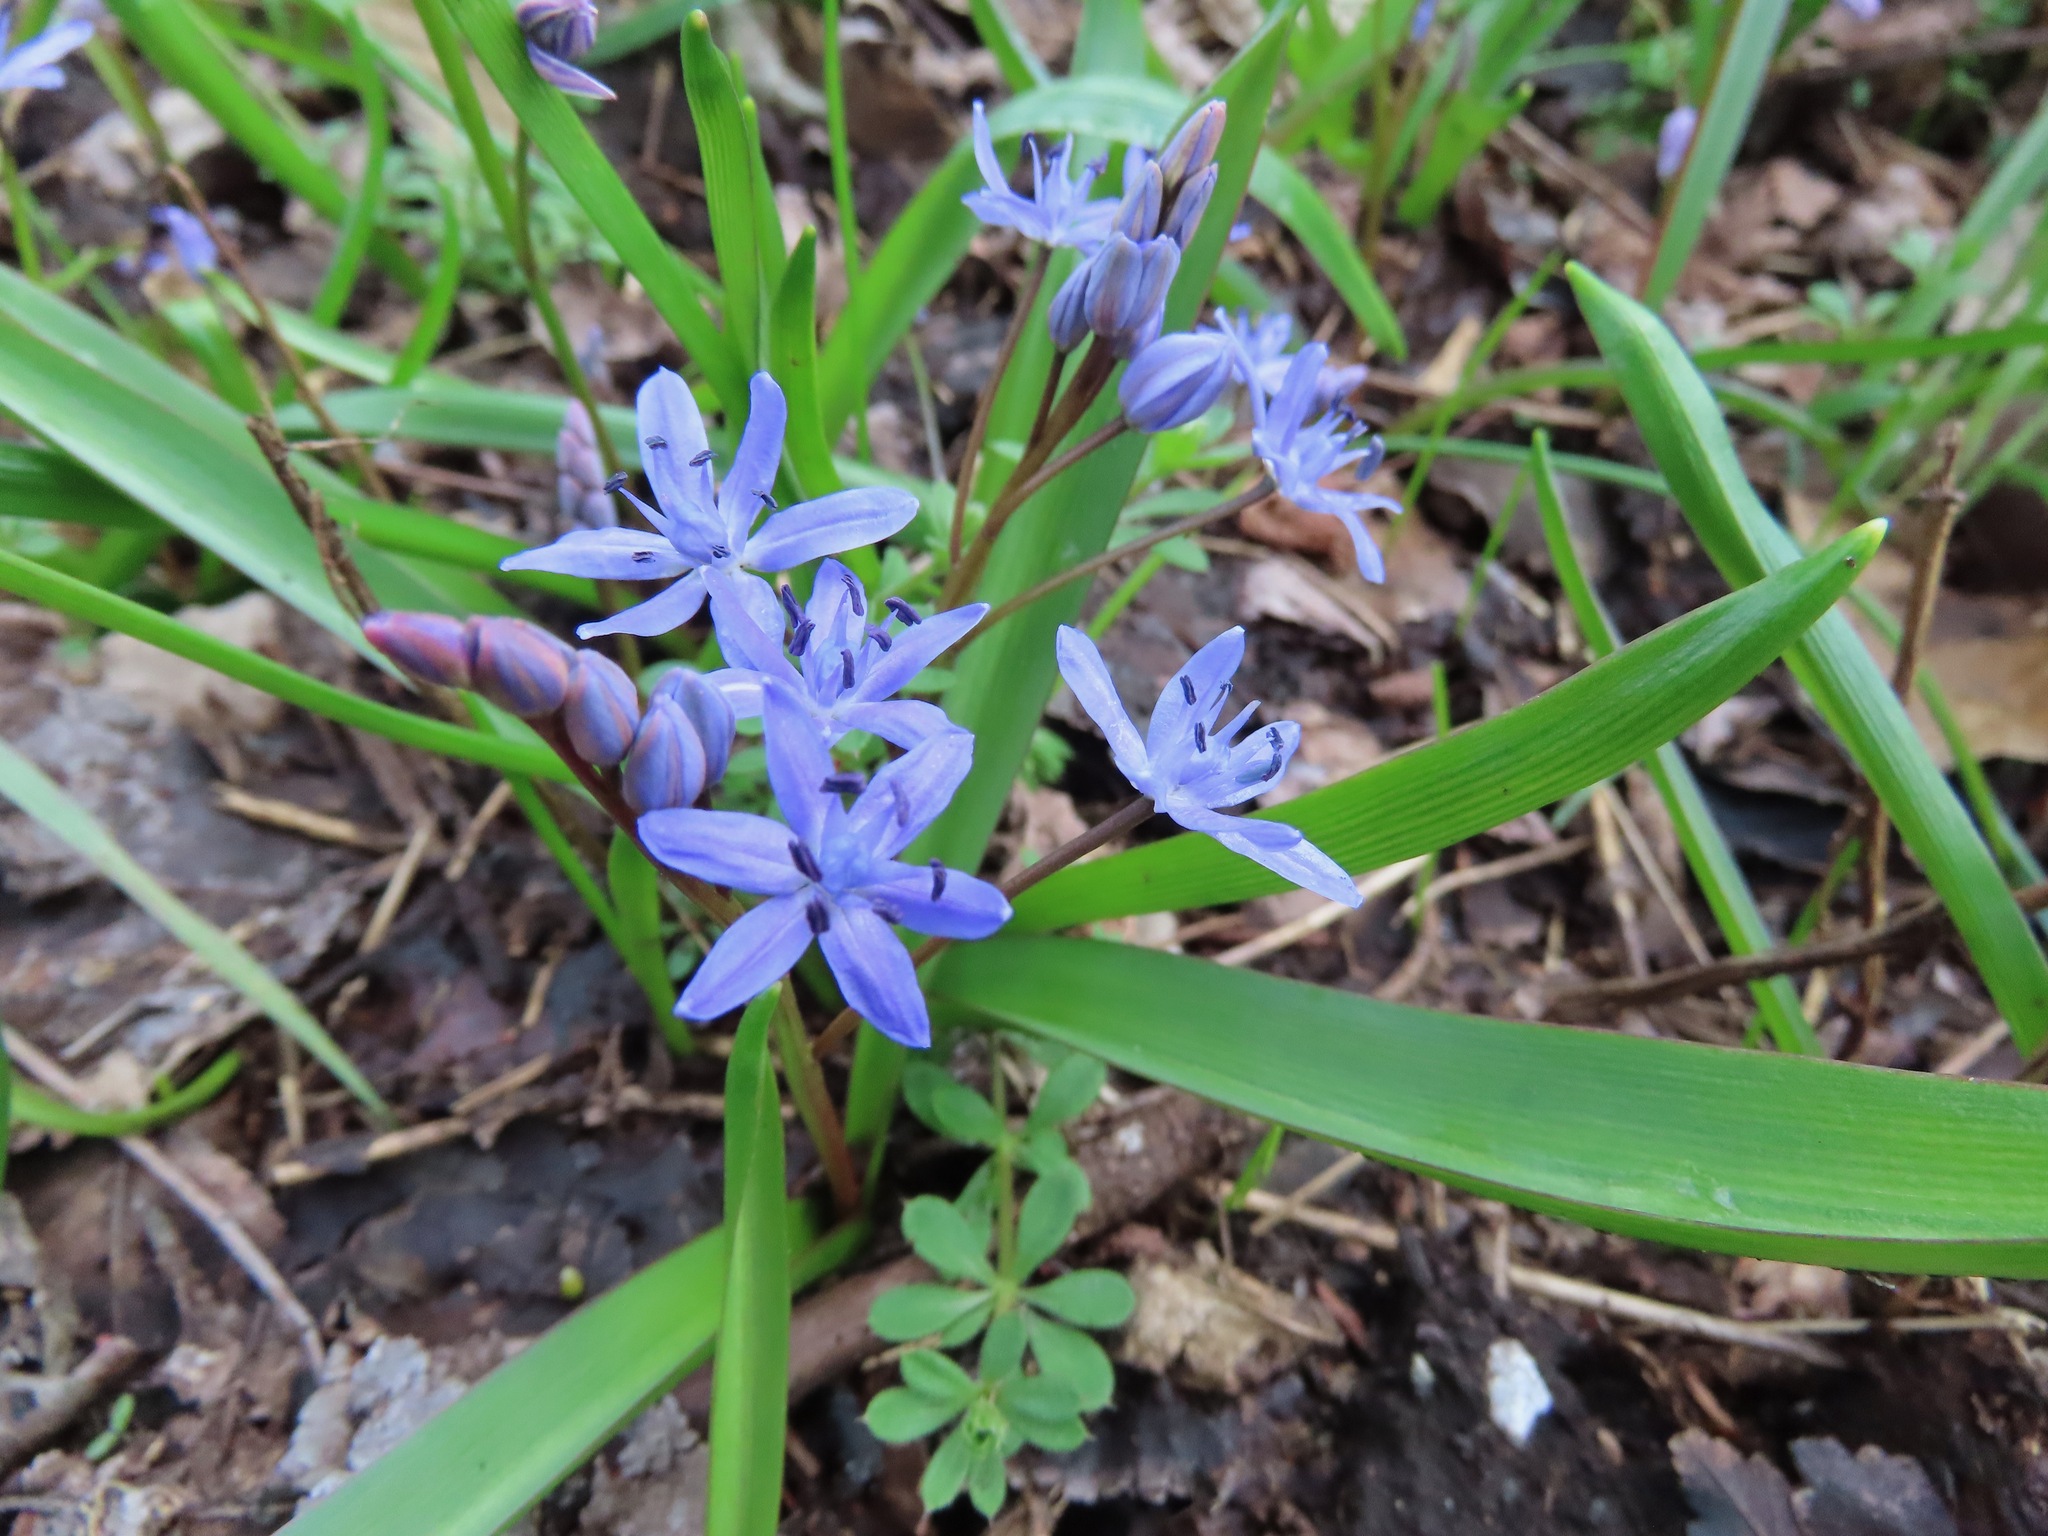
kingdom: Plantae
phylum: Tracheophyta
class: Liliopsida
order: Asparagales
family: Asparagaceae
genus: Scilla
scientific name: Scilla bifolia
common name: Alpine squill
